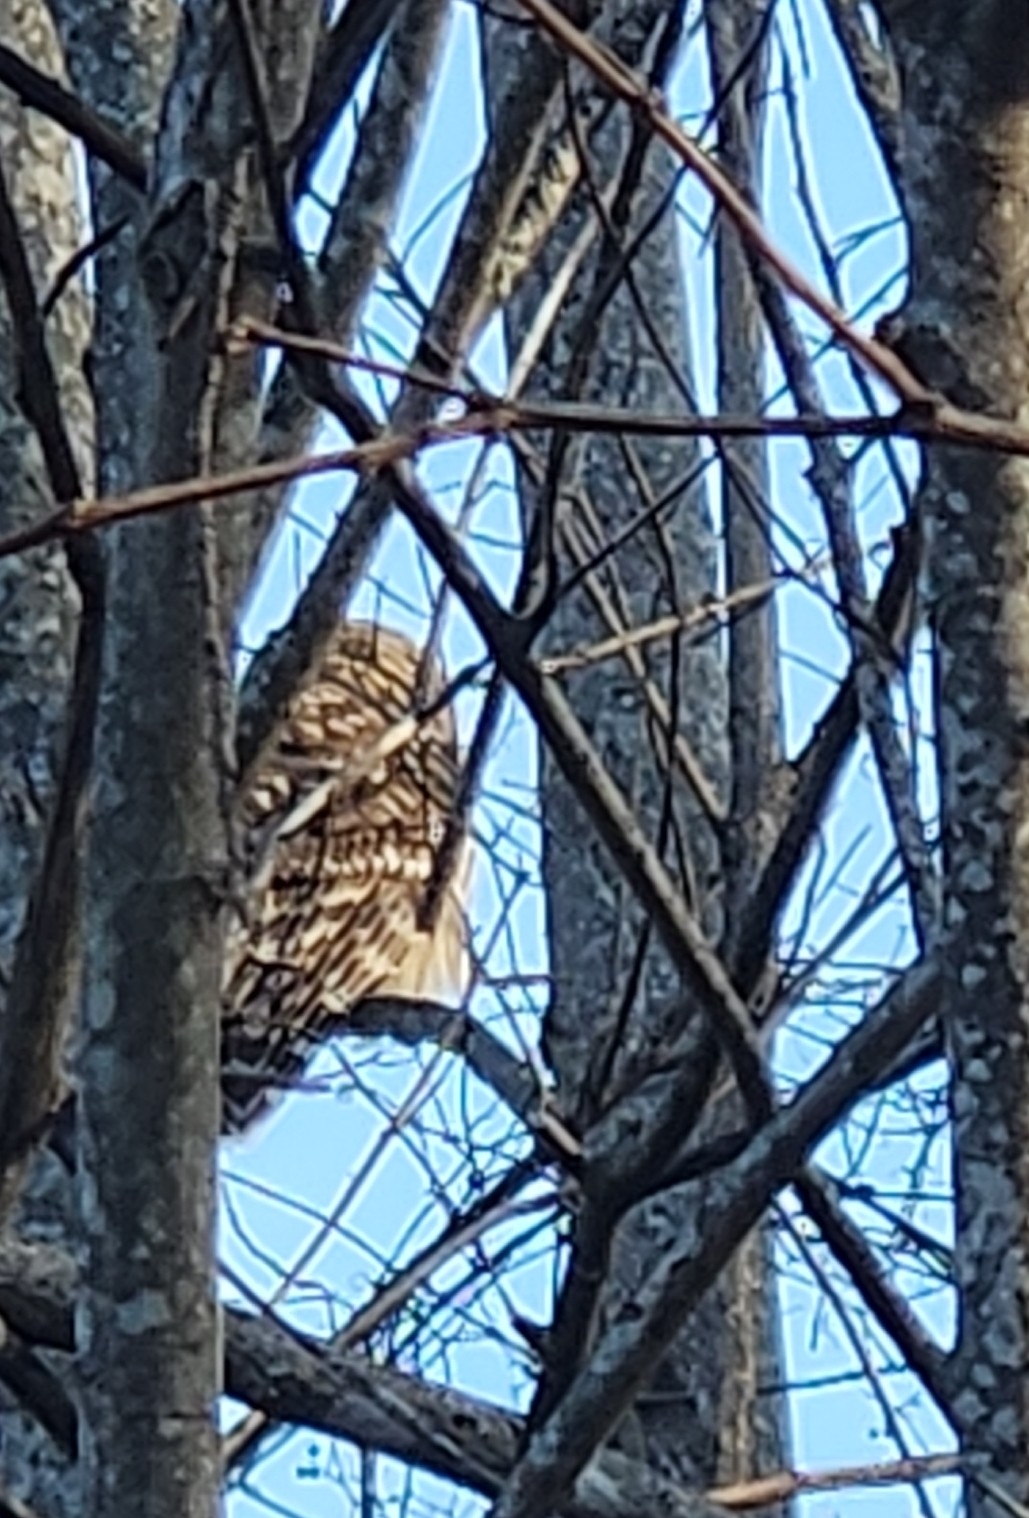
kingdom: Animalia
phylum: Chordata
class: Aves
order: Strigiformes
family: Strigidae
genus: Strix
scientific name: Strix varia
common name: Barred owl
